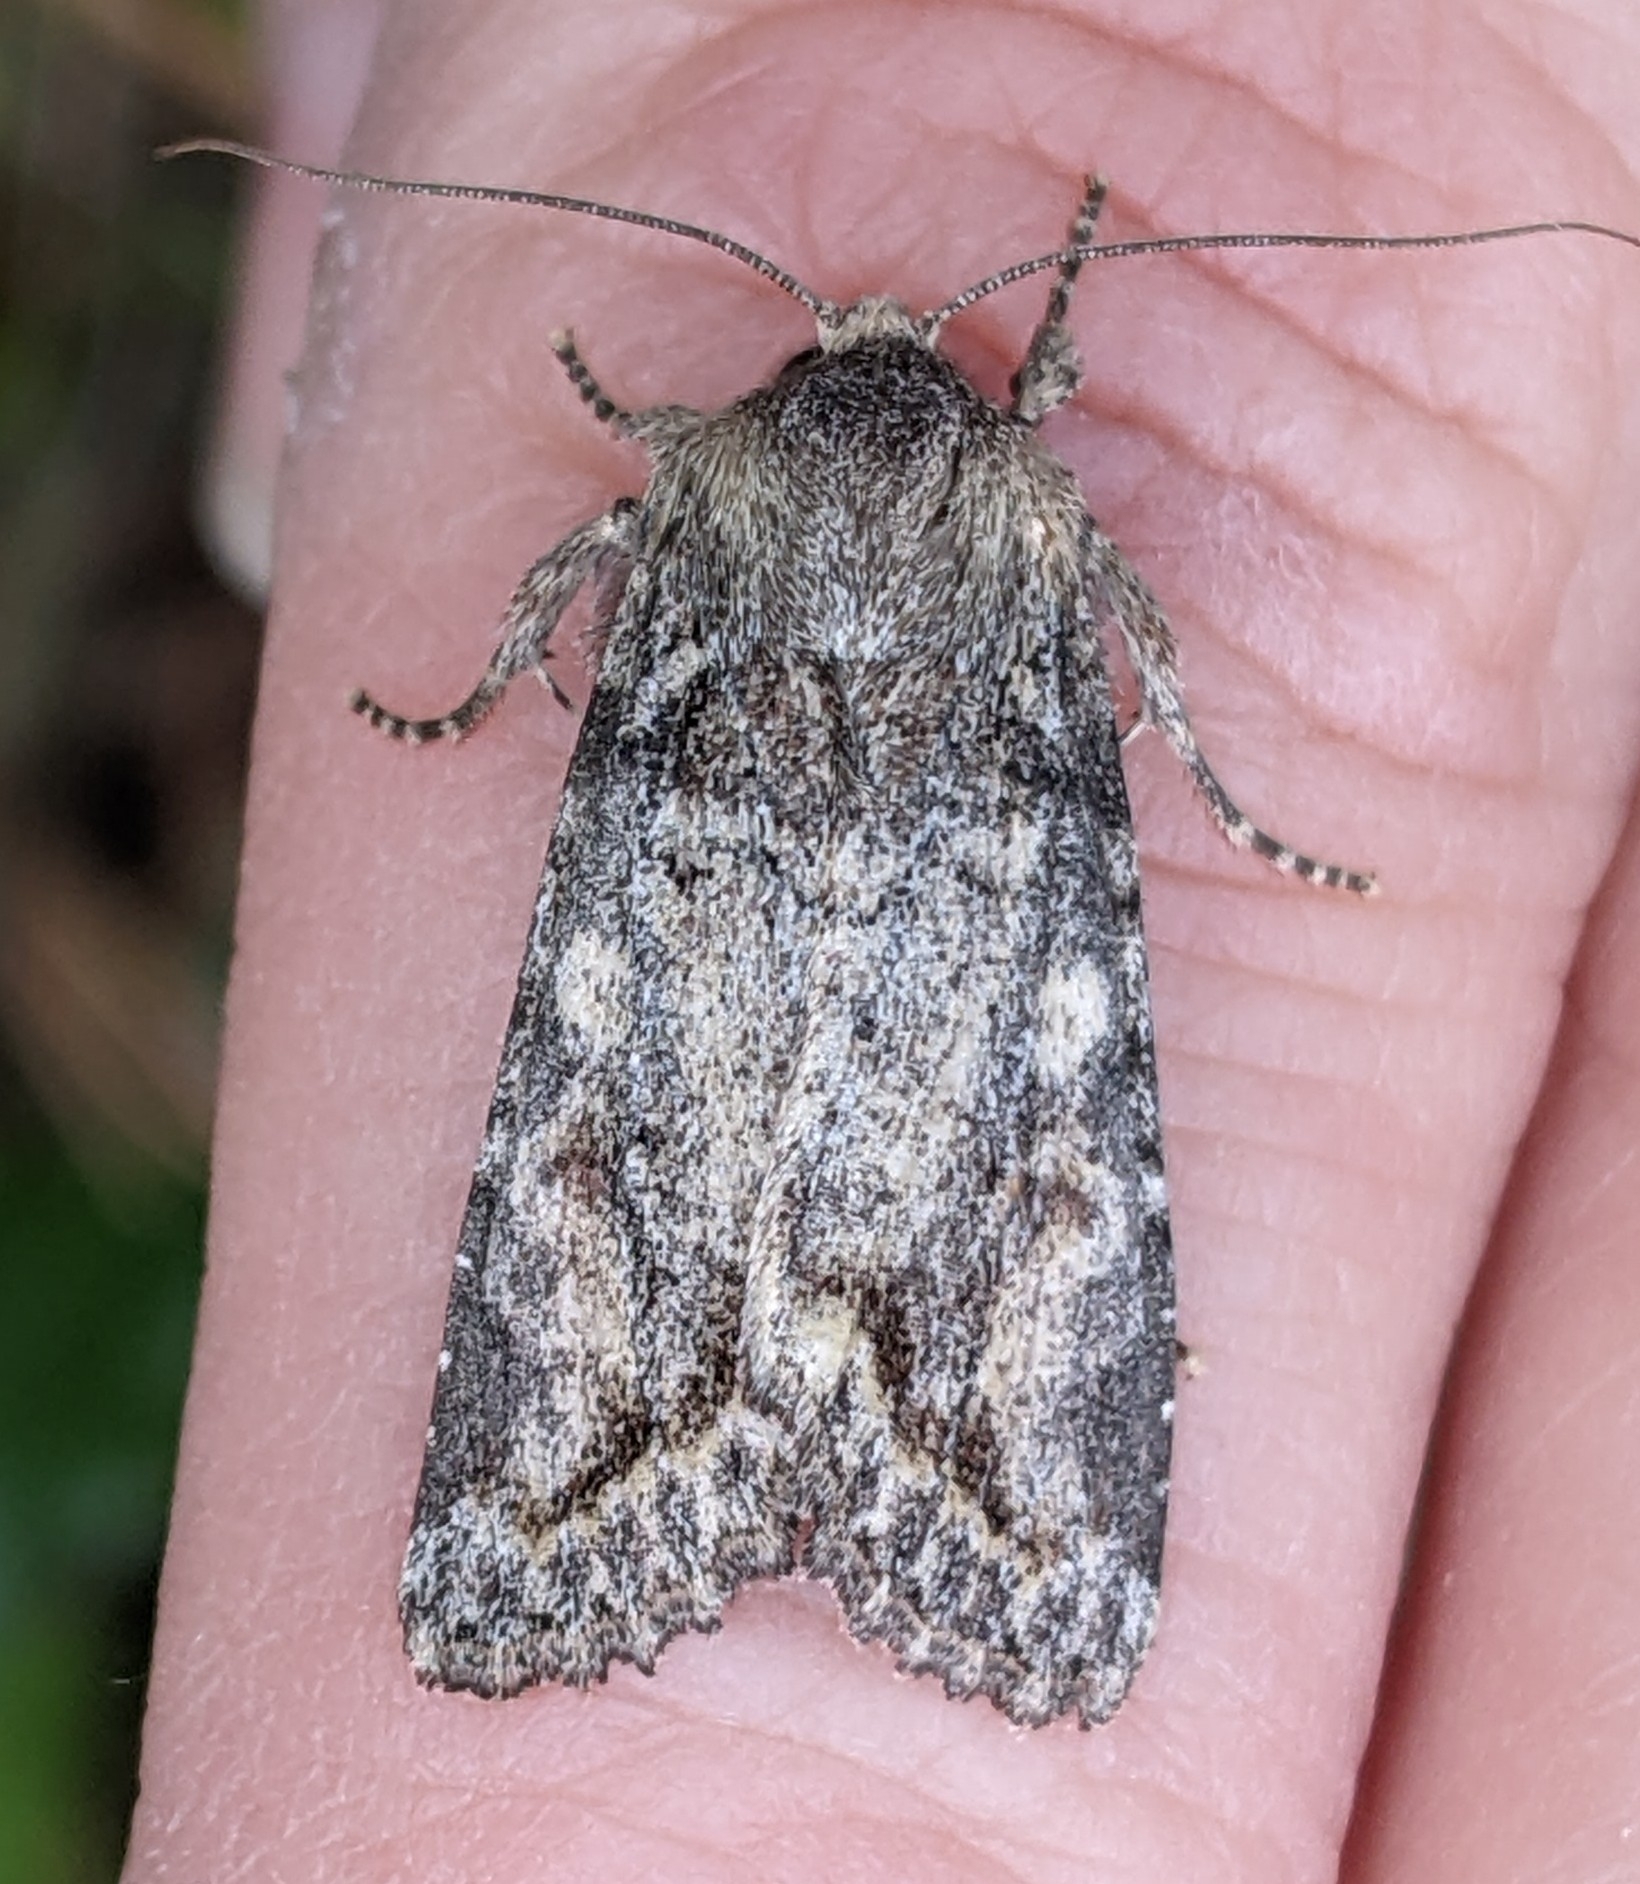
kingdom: Animalia
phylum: Arthropoda
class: Insecta
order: Lepidoptera
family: Noctuidae
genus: Egira
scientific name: Egira perlubens
